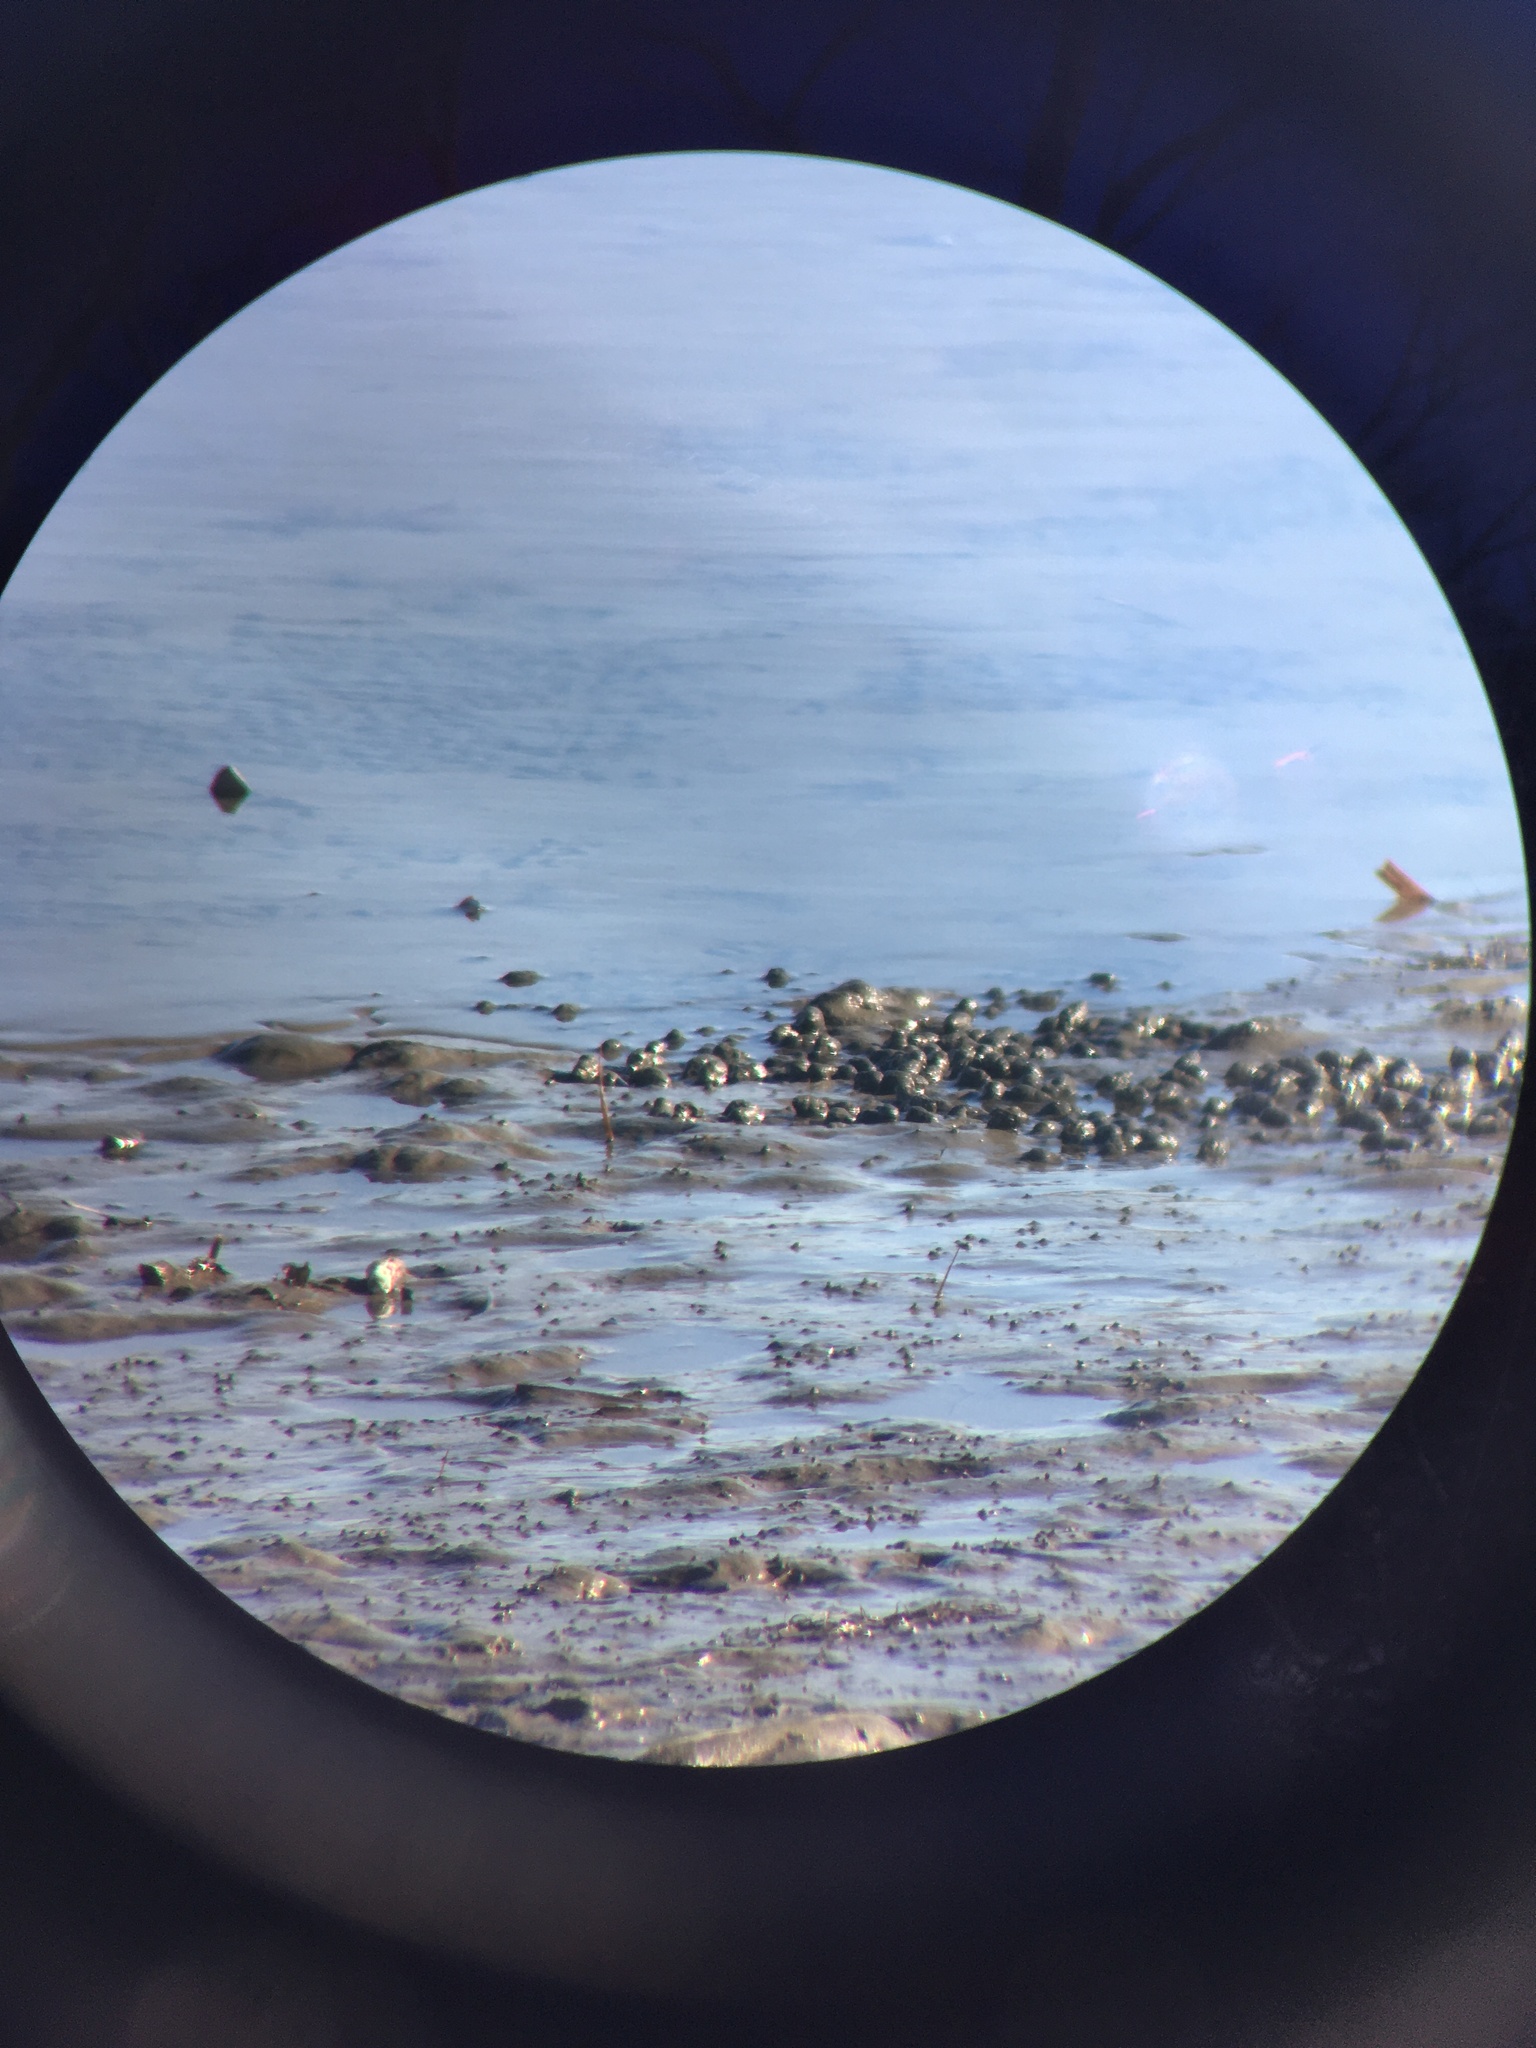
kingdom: Animalia
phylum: Mollusca
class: Gastropoda
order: Neogastropoda
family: Nassariidae
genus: Ilyanassa
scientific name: Ilyanassa obsoleta
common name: Eastern mudsnail
